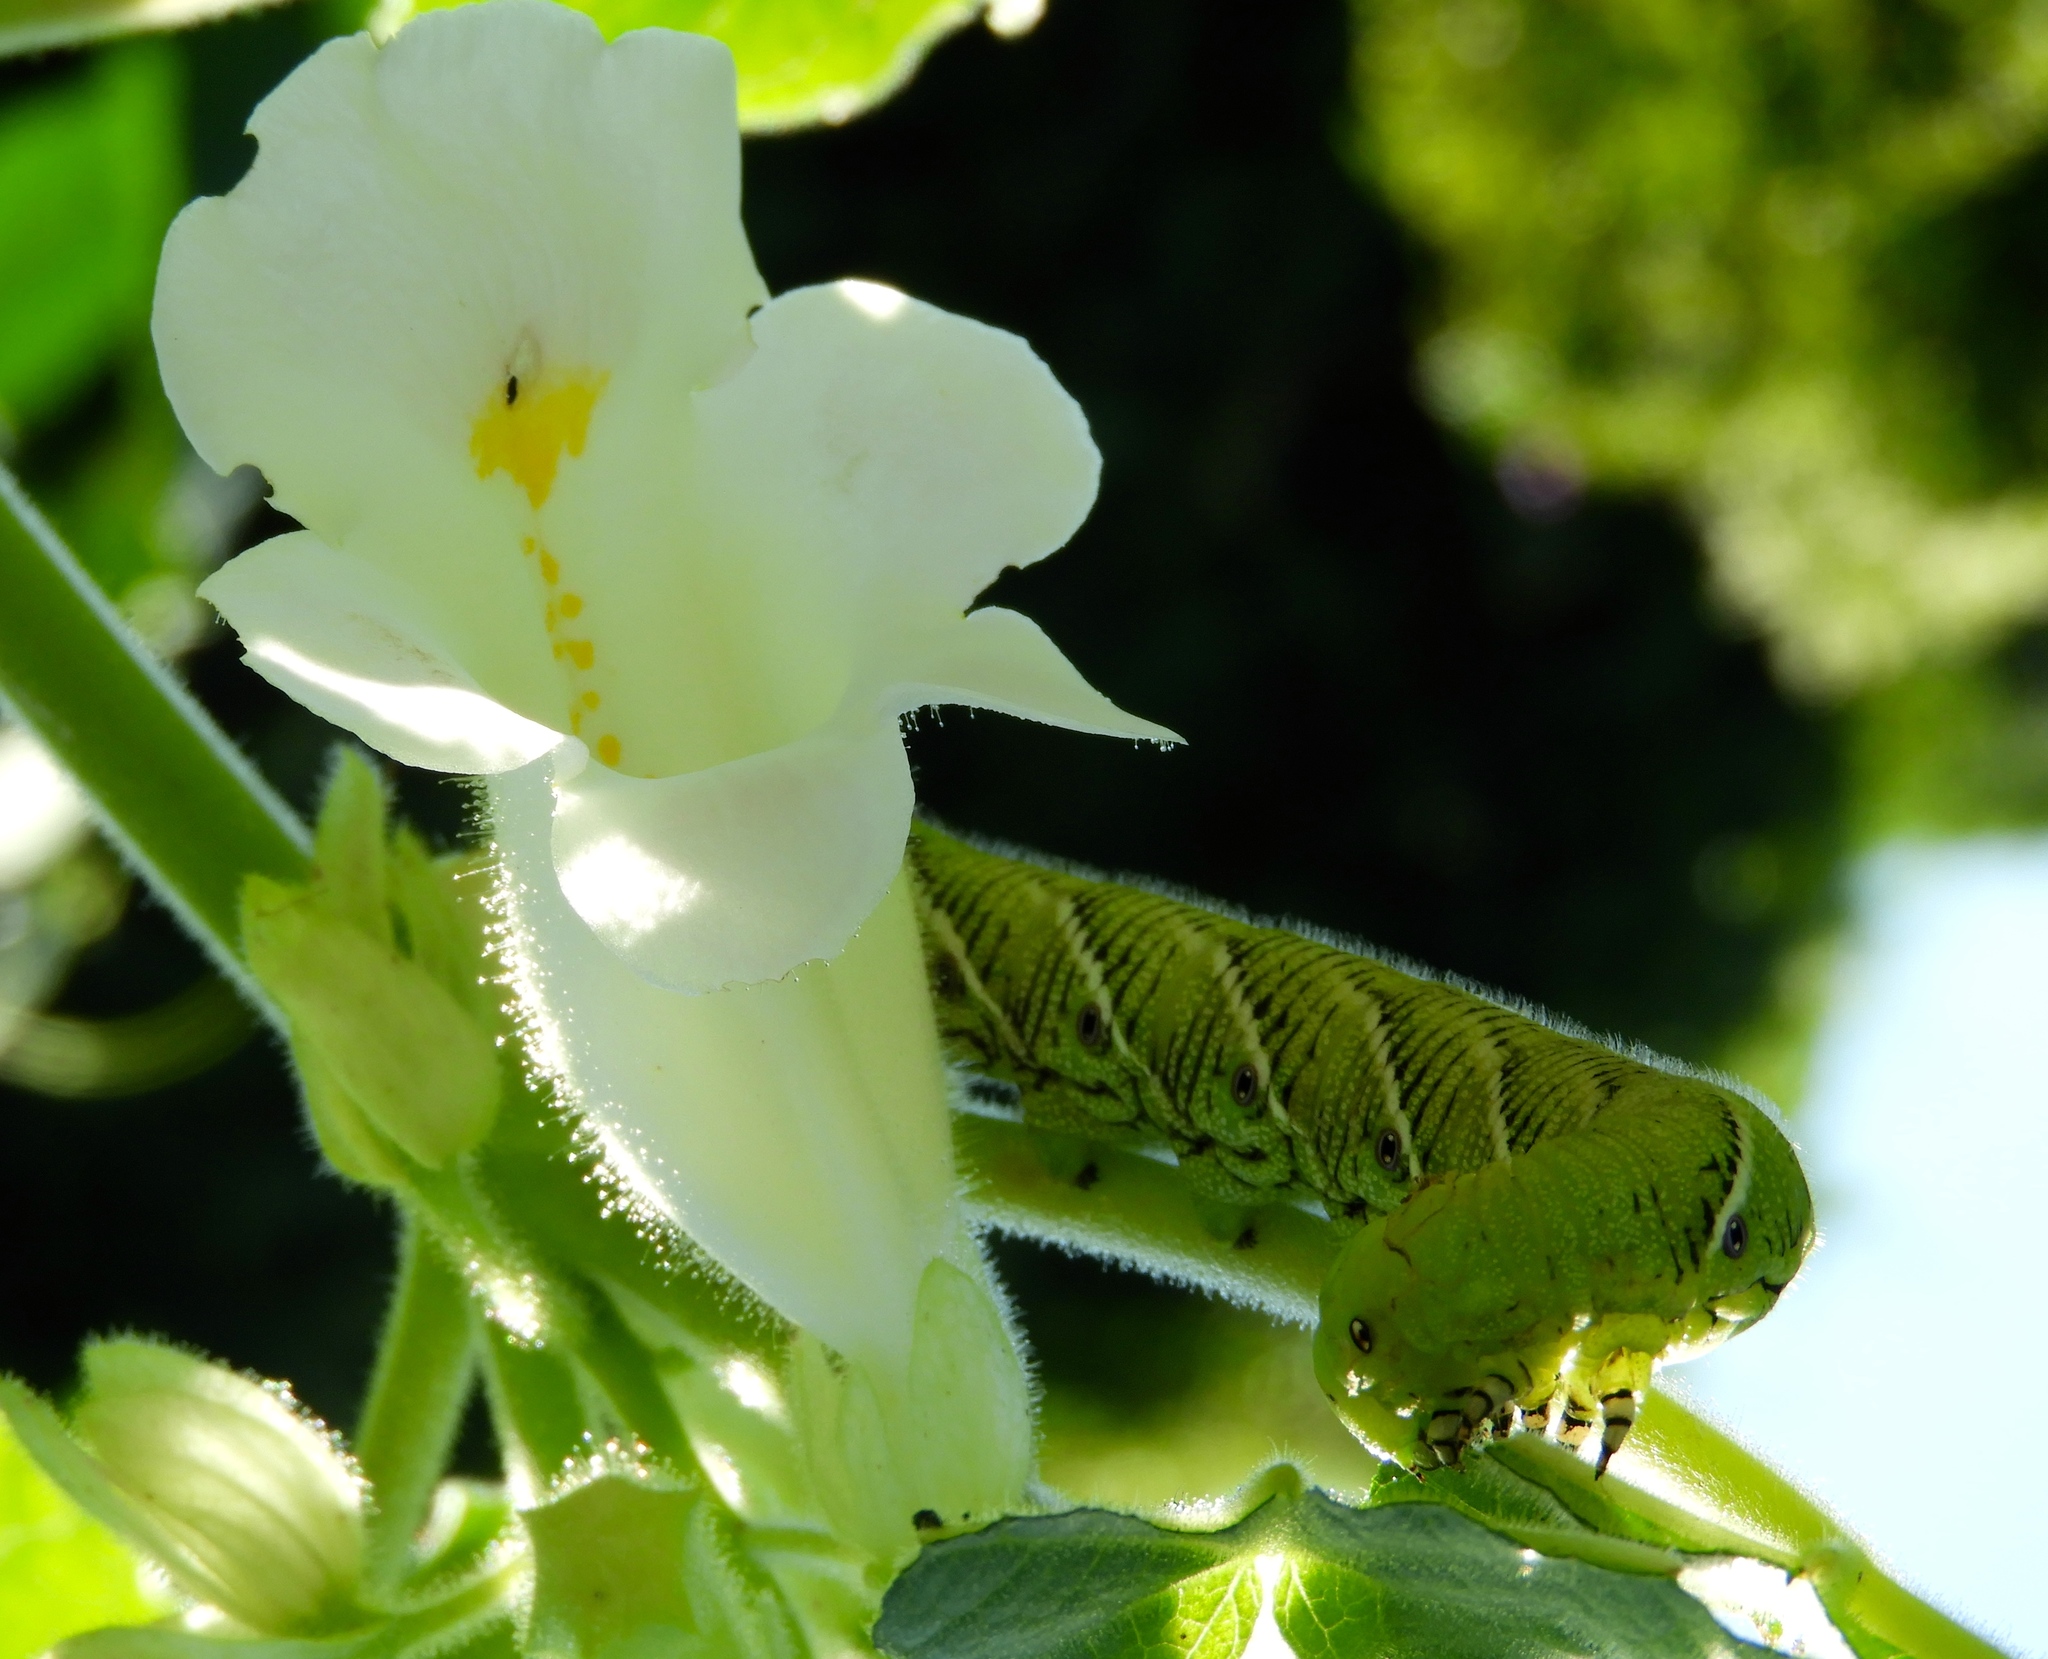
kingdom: Animalia
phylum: Arthropoda
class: Insecta
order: Lepidoptera
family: Sphingidae
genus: Manduca
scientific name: Manduca sexta
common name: Carolina sphinx
